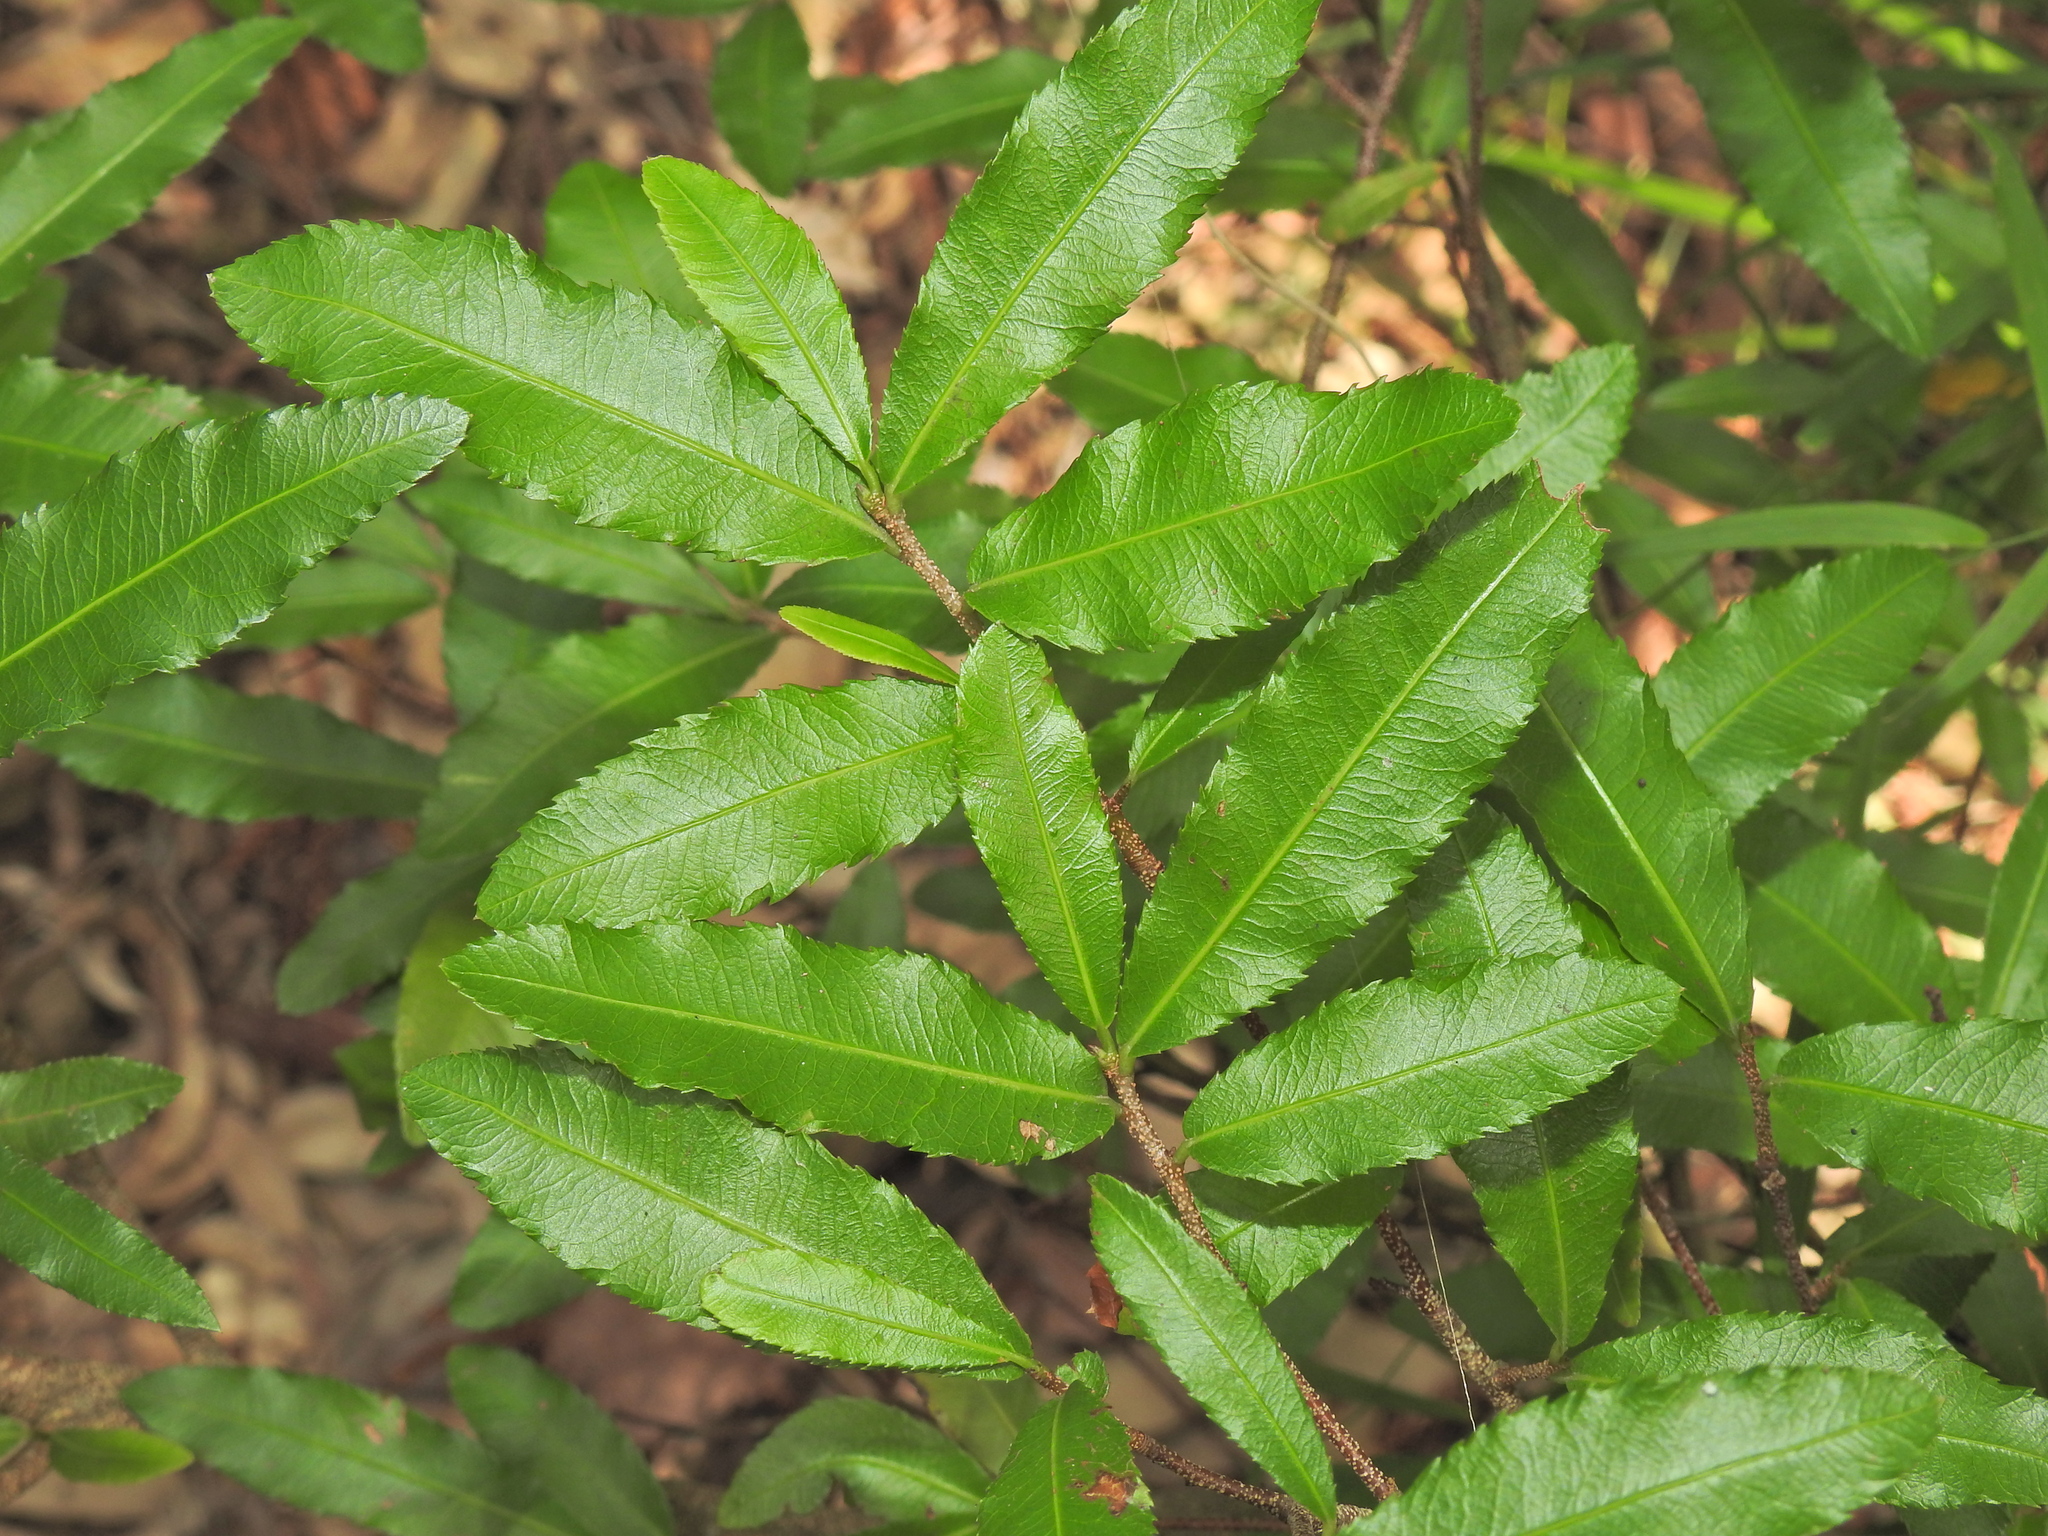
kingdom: Plantae
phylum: Tracheophyta
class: Magnoliopsida
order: Malpighiales
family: Ochnaceae
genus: Ochna
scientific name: Ochna serrulata
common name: Mickey mouse plant
